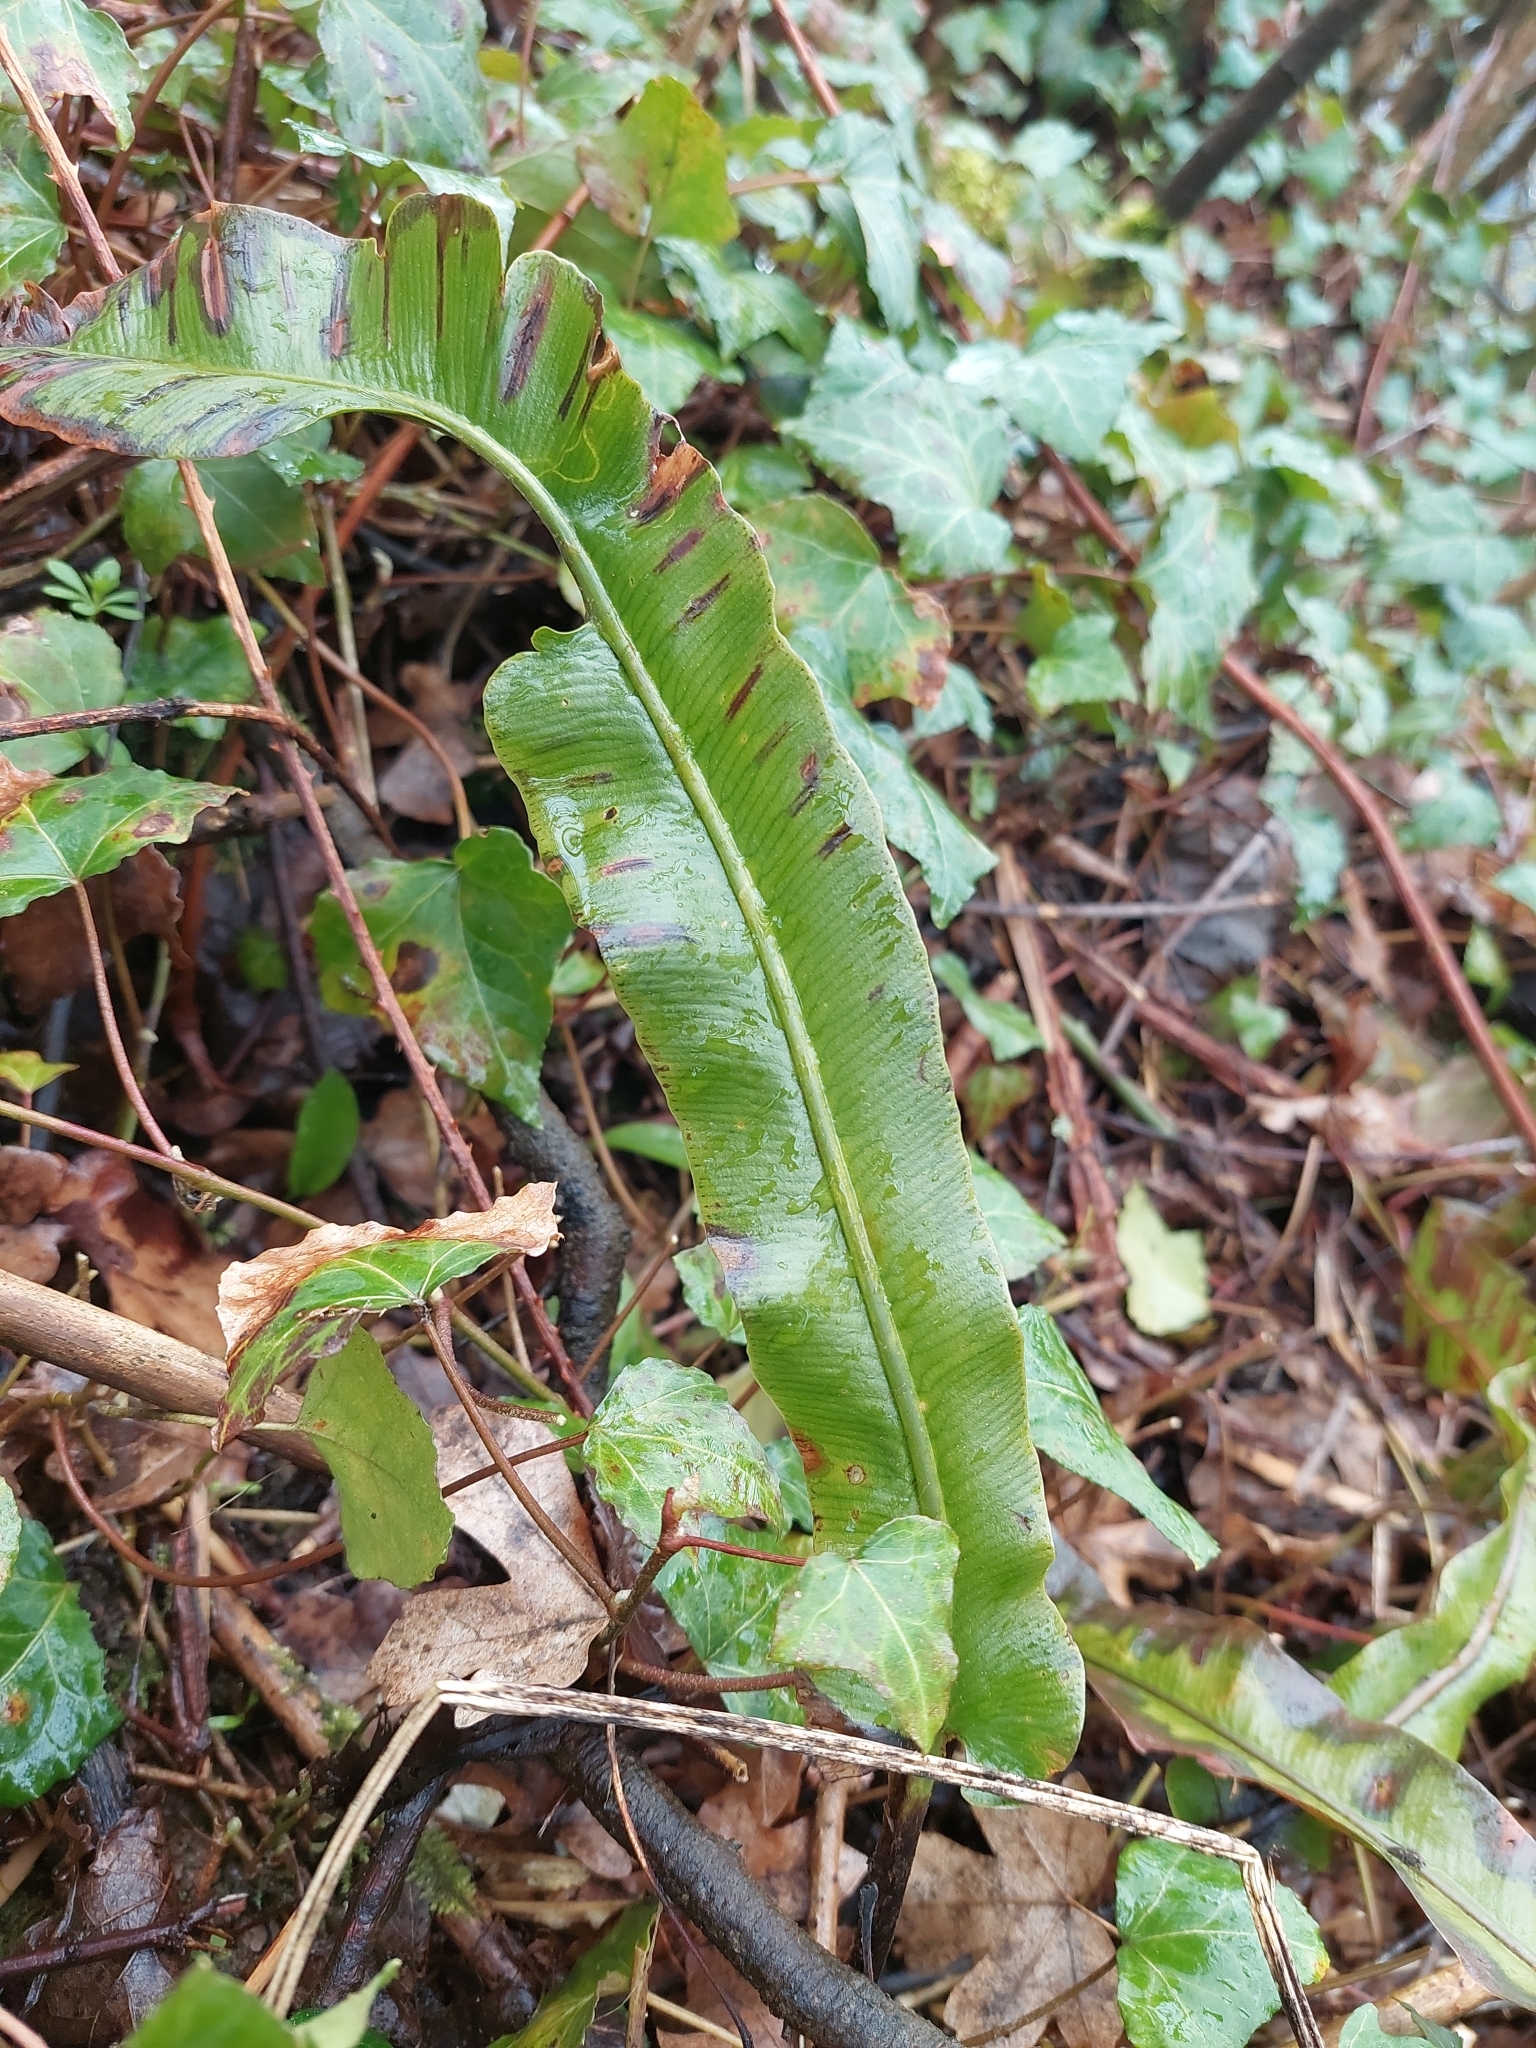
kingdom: Plantae
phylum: Tracheophyta
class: Polypodiopsida
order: Polypodiales
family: Aspleniaceae
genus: Asplenium
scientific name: Asplenium scolopendrium
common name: Hart's-tongue fern
